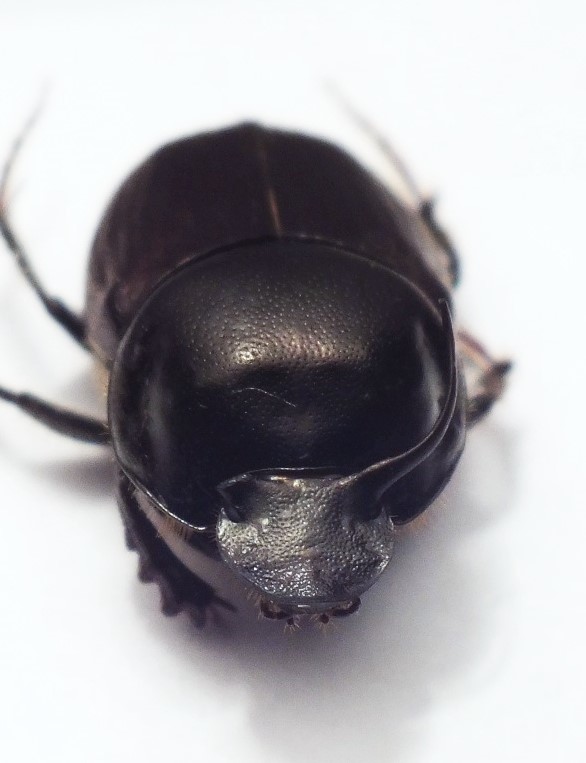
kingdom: Animalia
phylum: Arthropoda
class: Insecta
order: Coleoptera
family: Scarabaeidae
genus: Onthophagus
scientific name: Onthophagus taurus
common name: Bullhorned dung beetle
